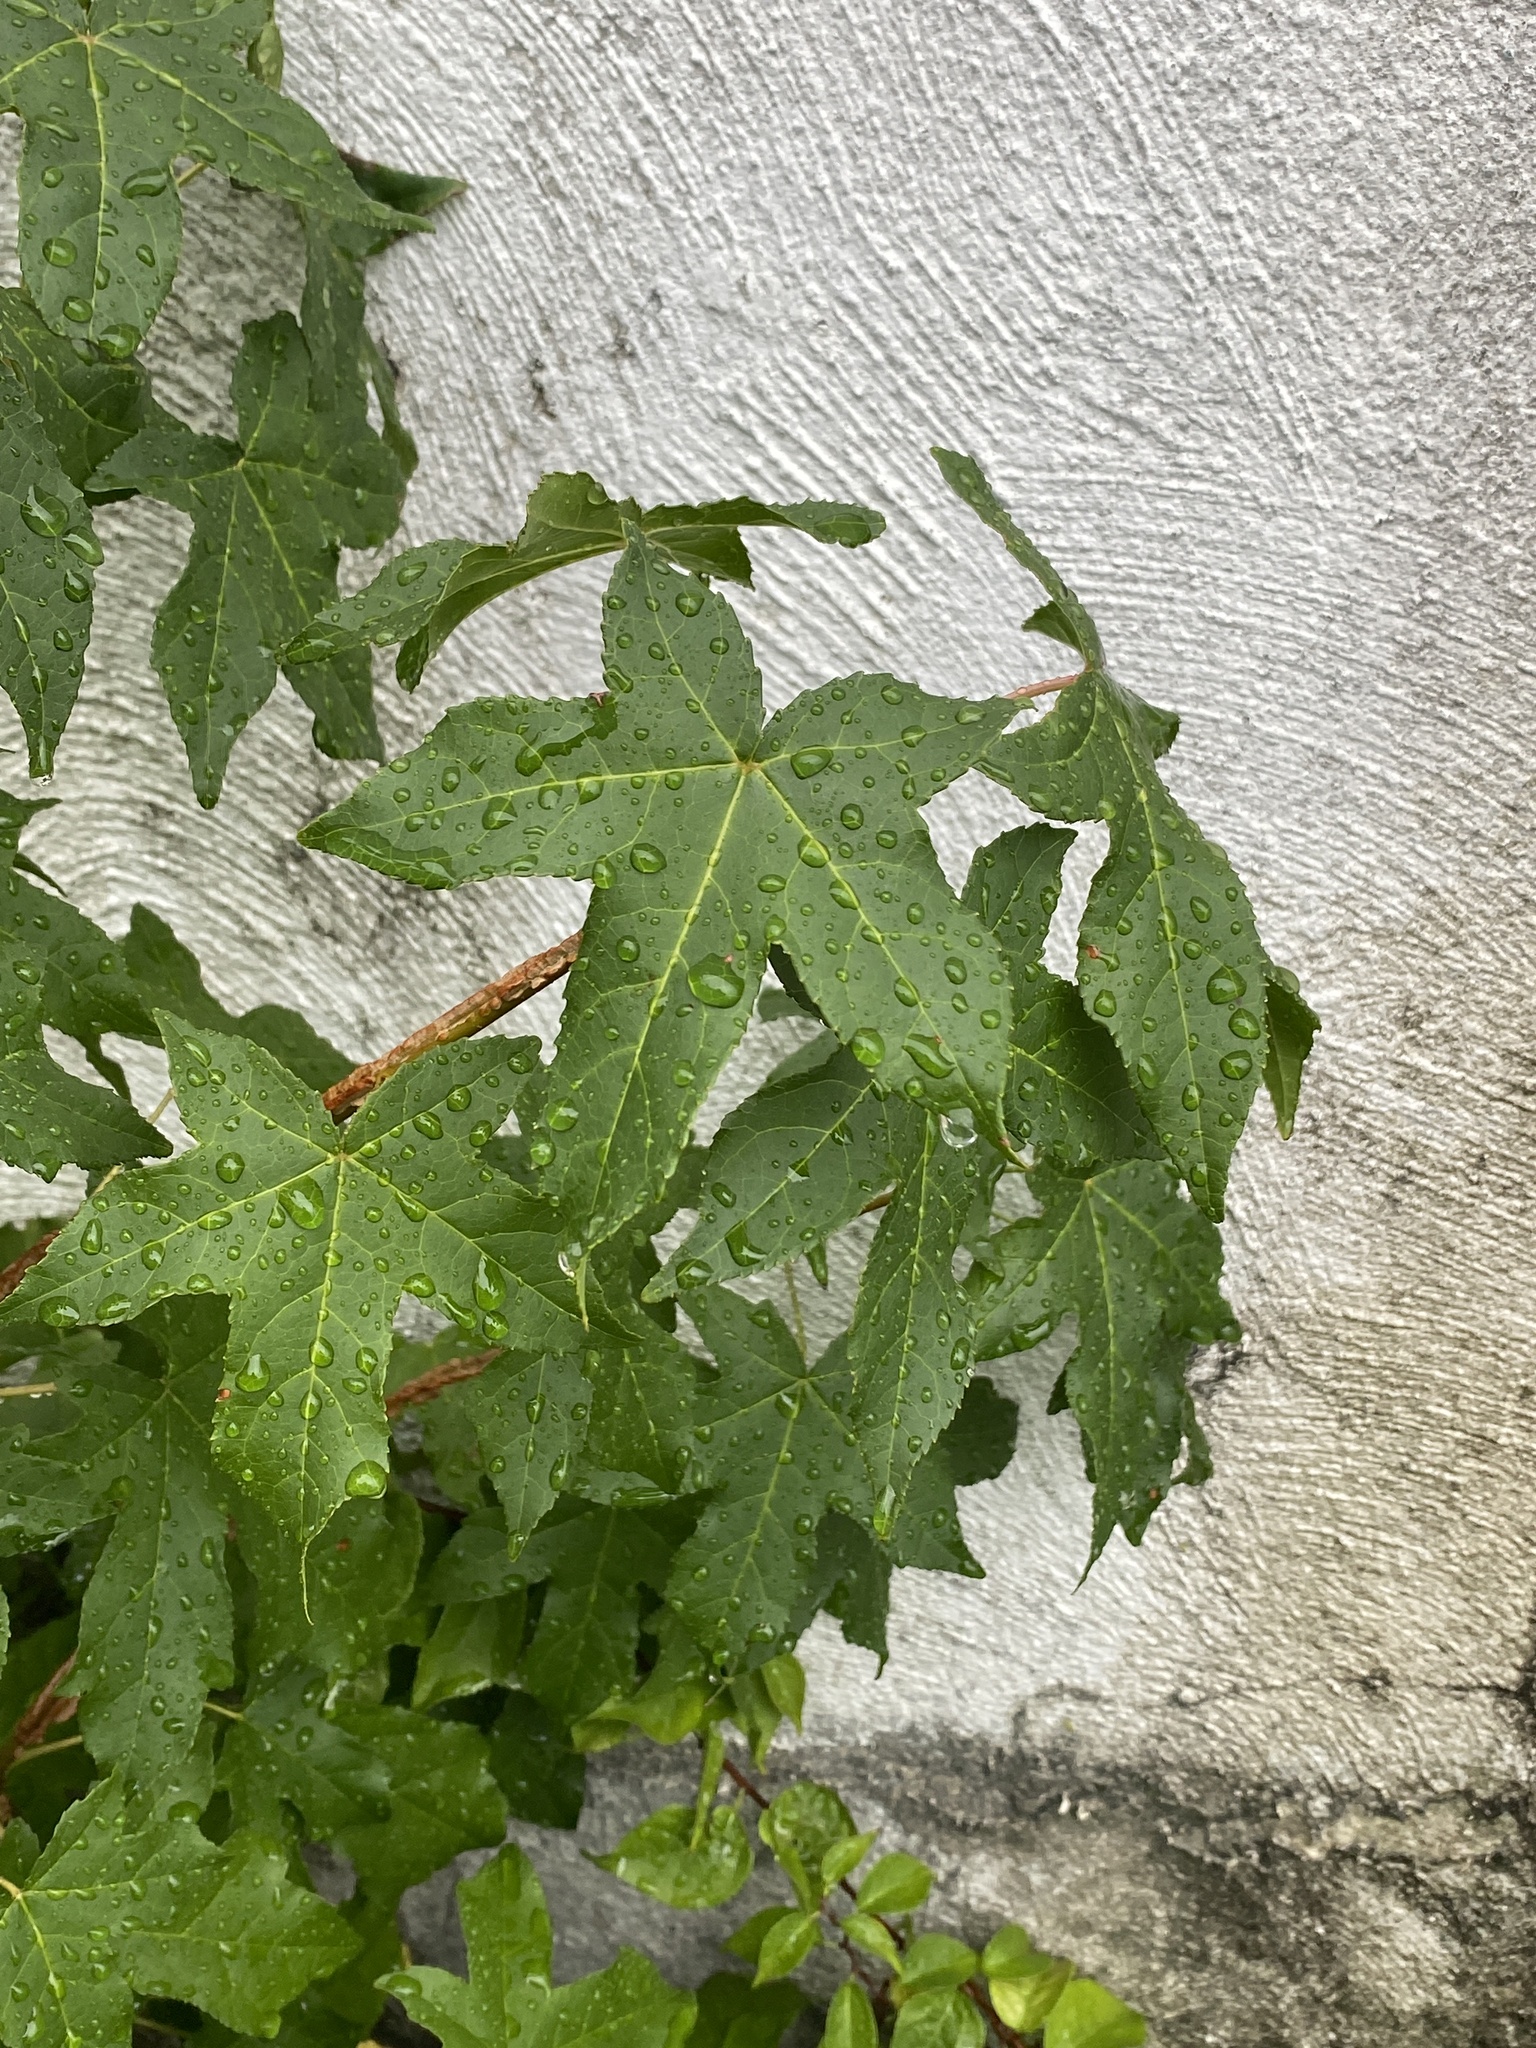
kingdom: Plantae
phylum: Tracheophyta
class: Magnoliopsida
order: Saxifragales
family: Altingiaceae
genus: Liquidambar
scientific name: Liquidambar styraciflua
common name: Sweet gum
